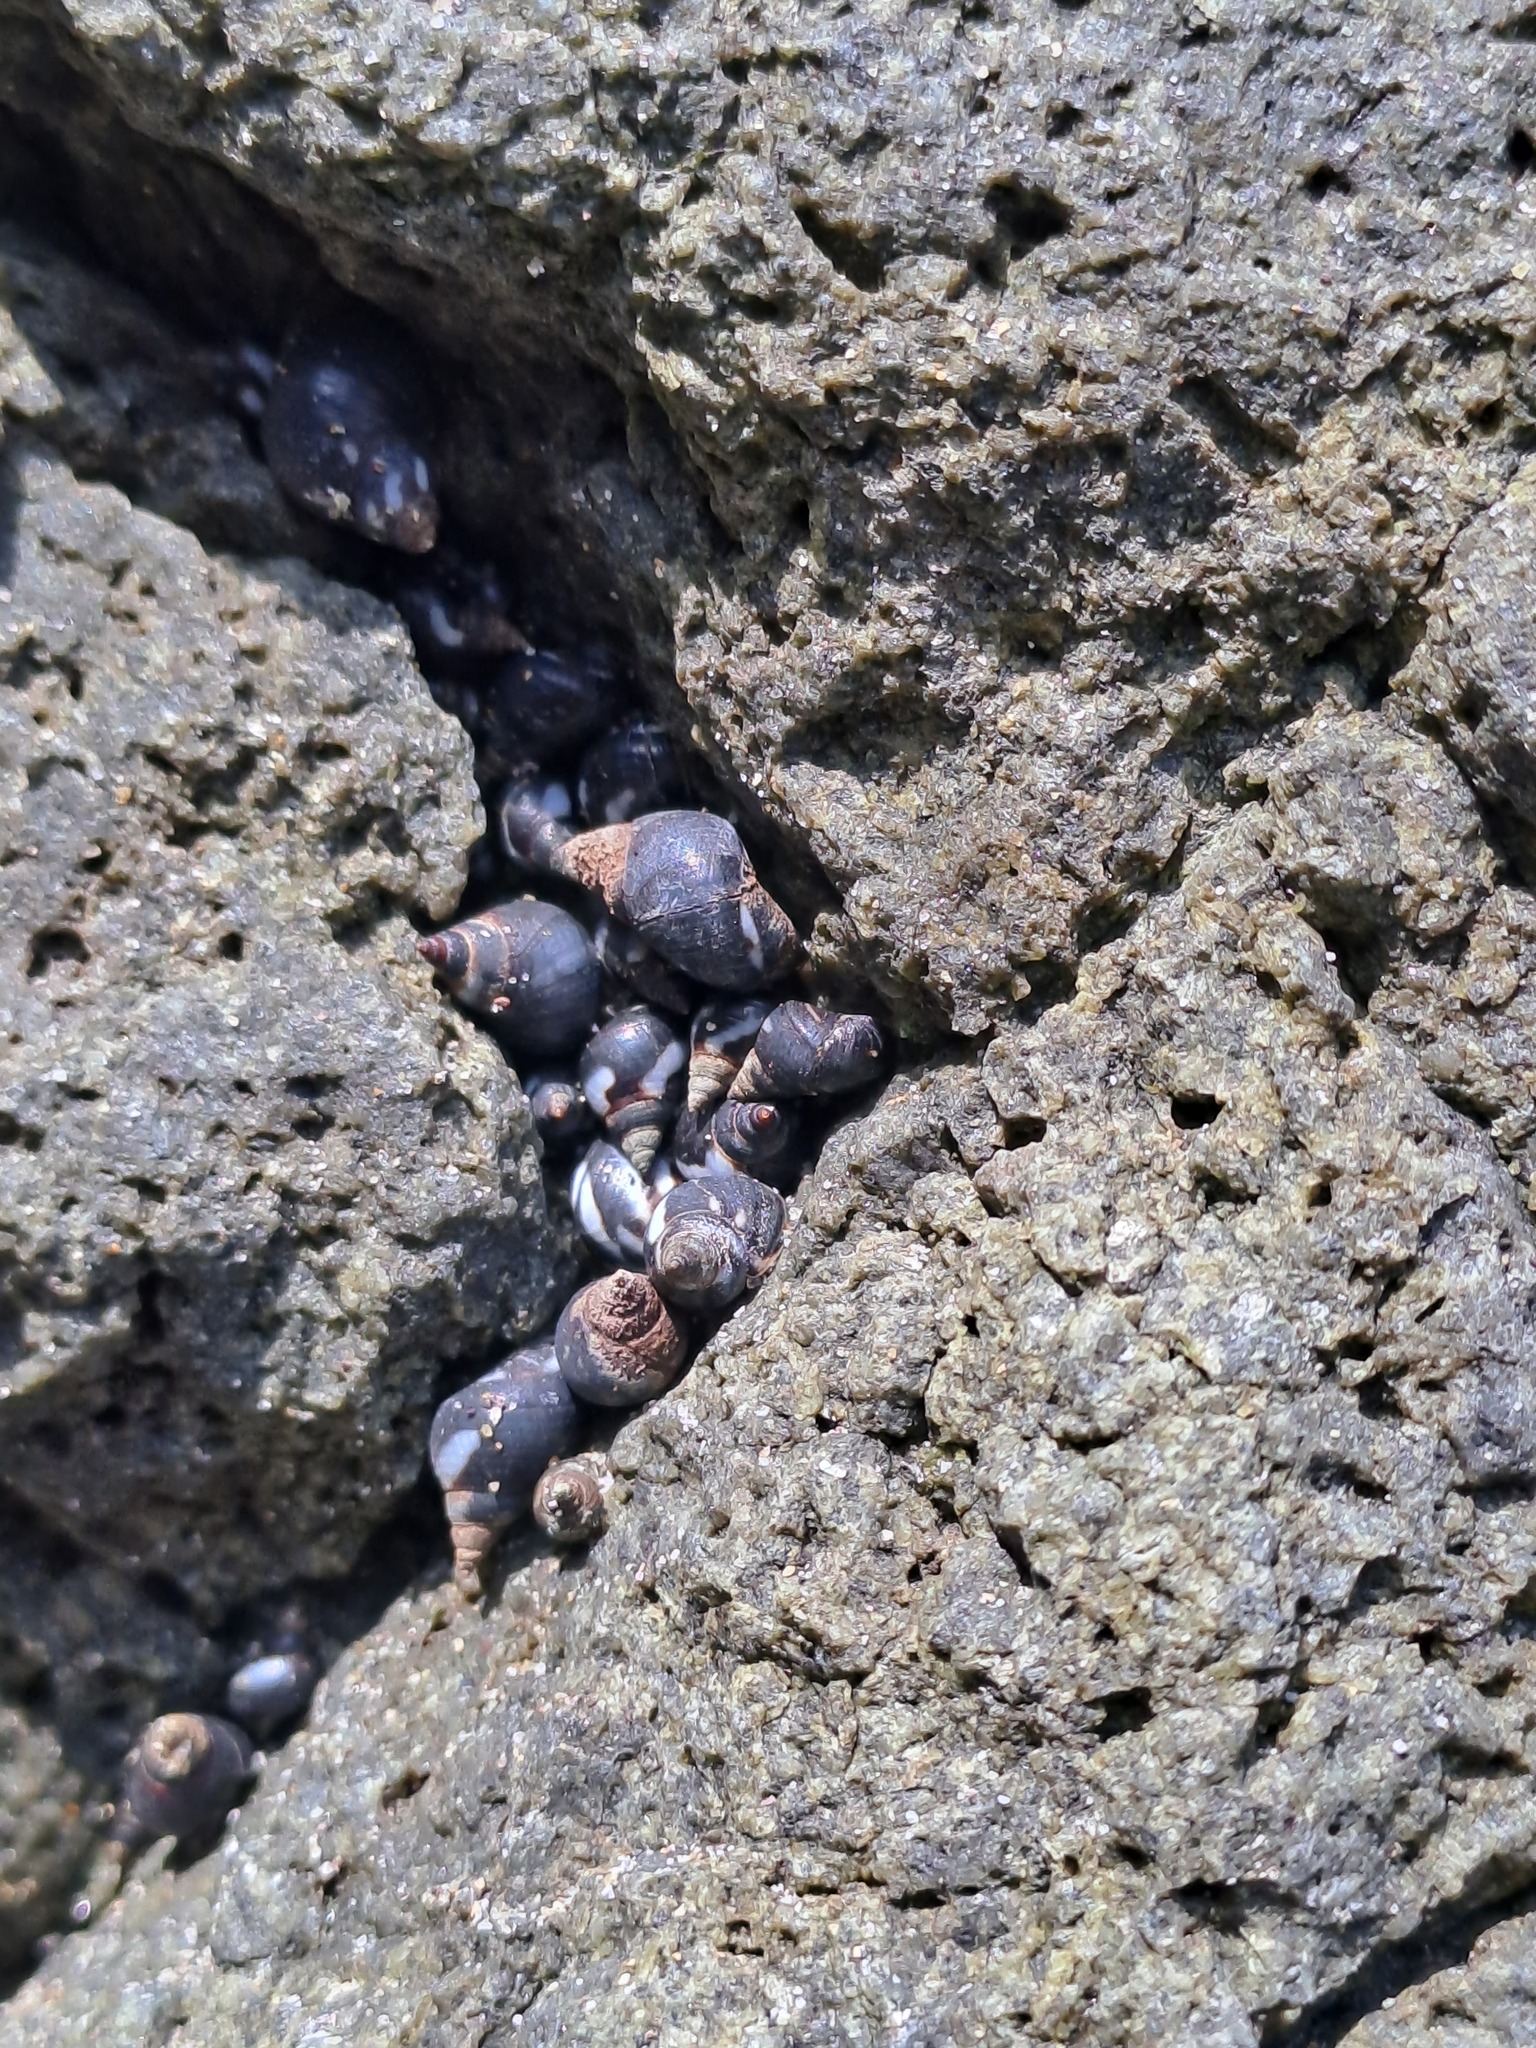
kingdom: Animalia
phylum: Mollusca
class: Gastropoda
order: Littorinimorpha
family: Littorinidae
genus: Echinolittorina
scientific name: Echinolittorina peruviana
